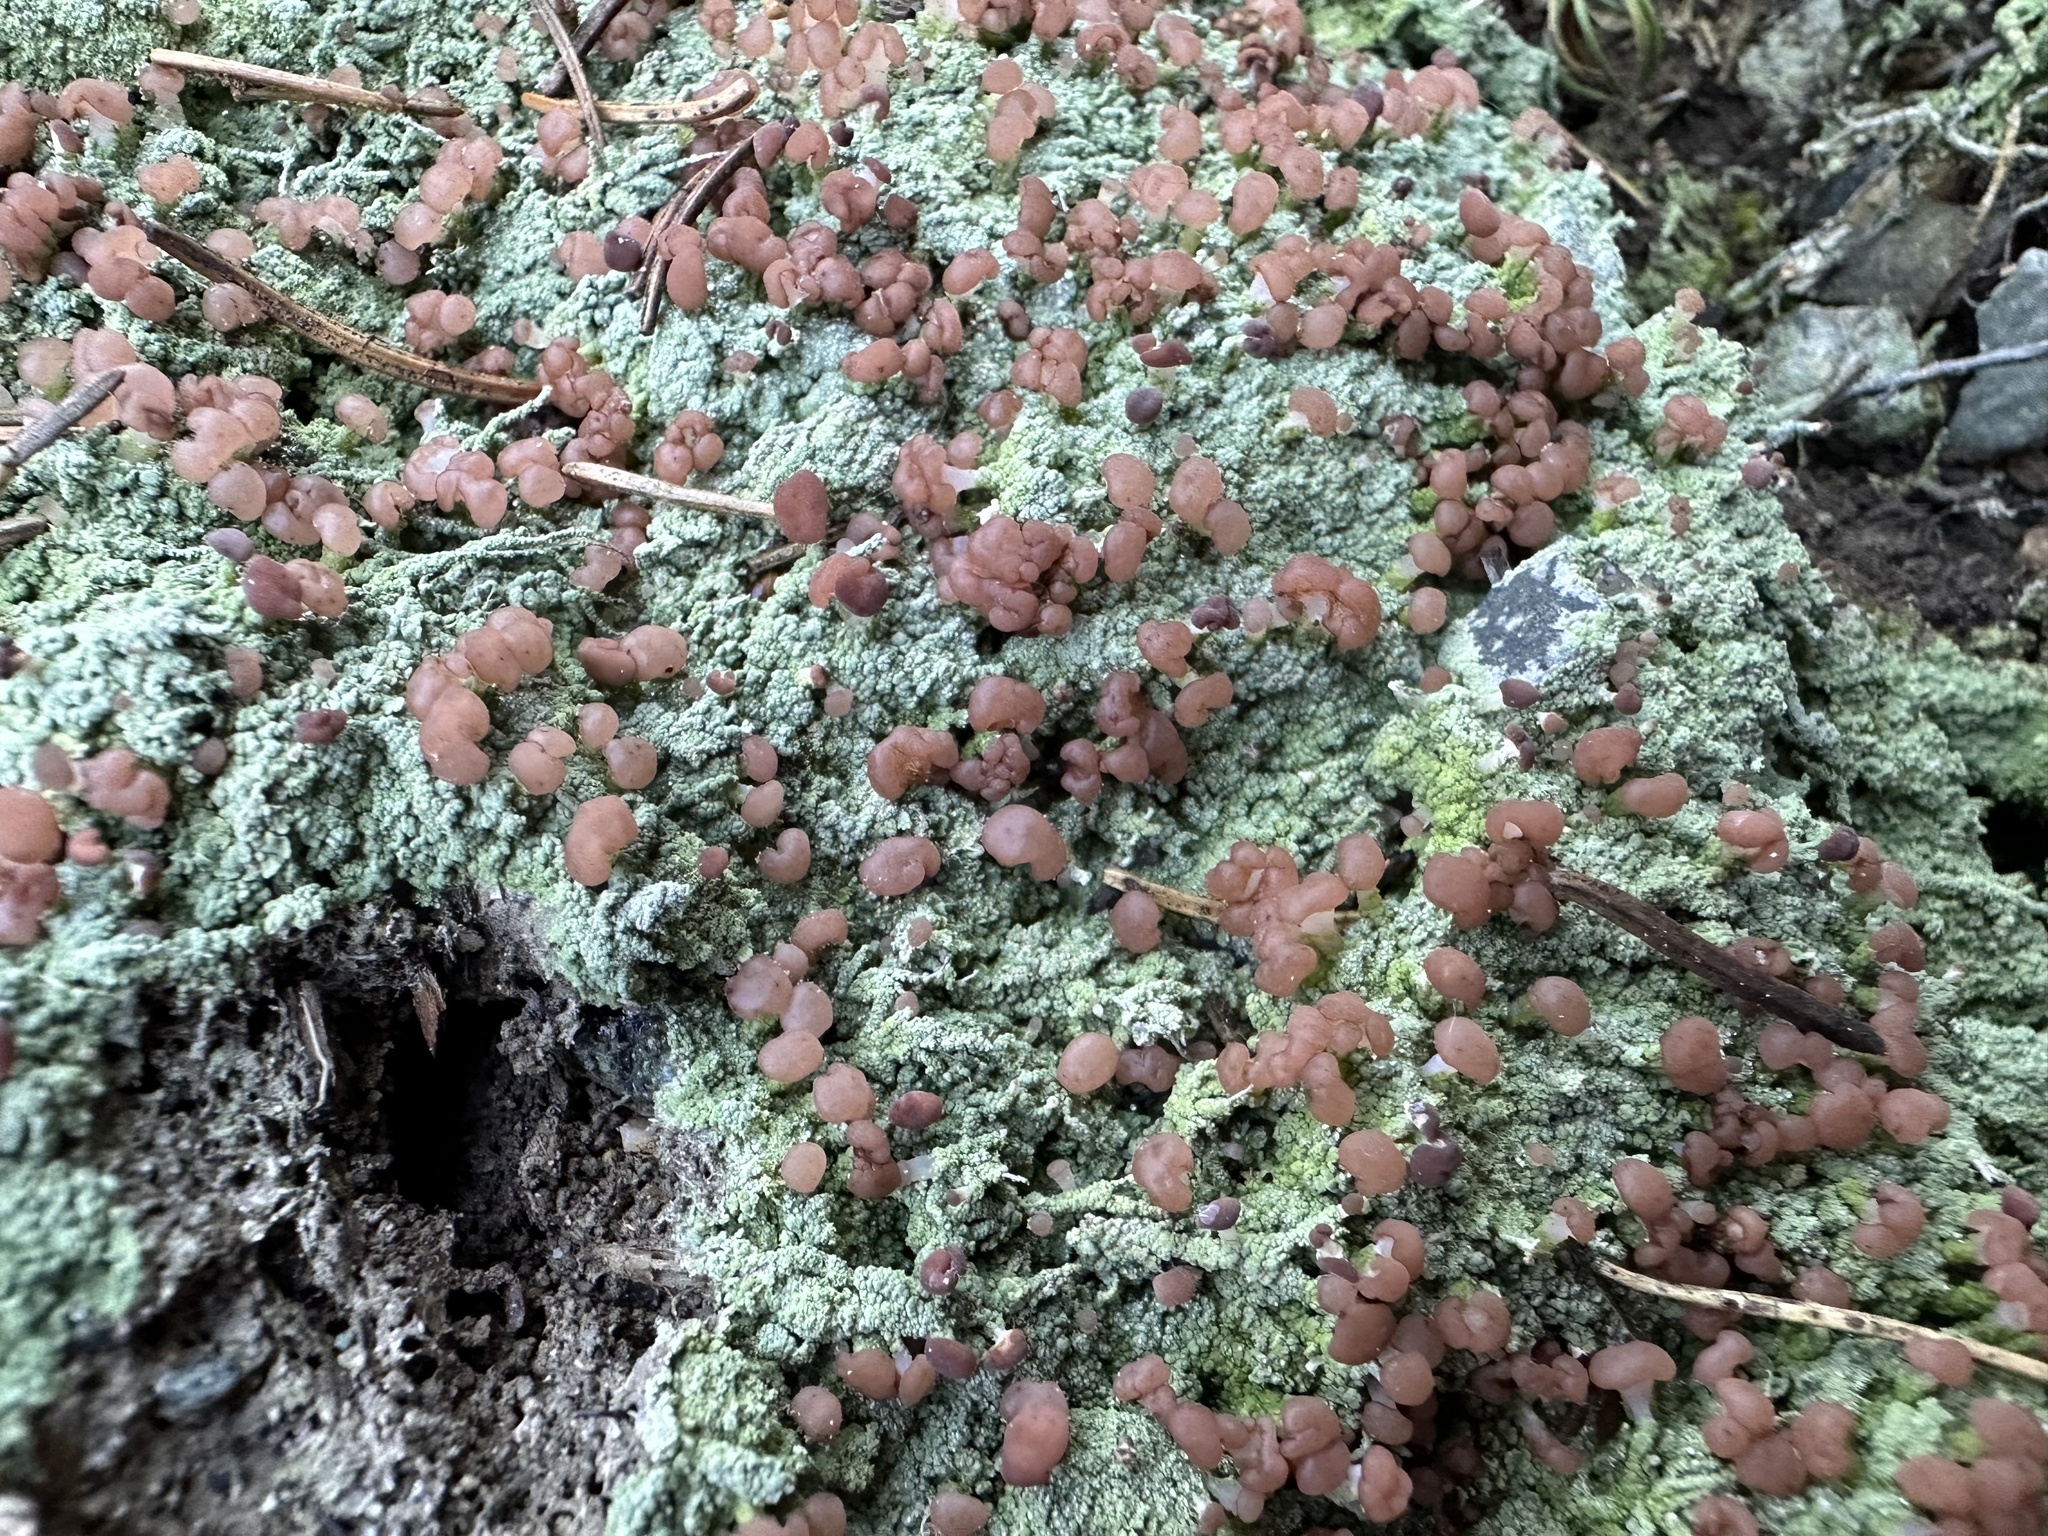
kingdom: Fungi
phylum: Ascomycota
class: Lecanoromycetes
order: Baeomycetales
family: Baeomycetaceae
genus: Baeomyces
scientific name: Baeomyces rufus
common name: Brown beret lichen
